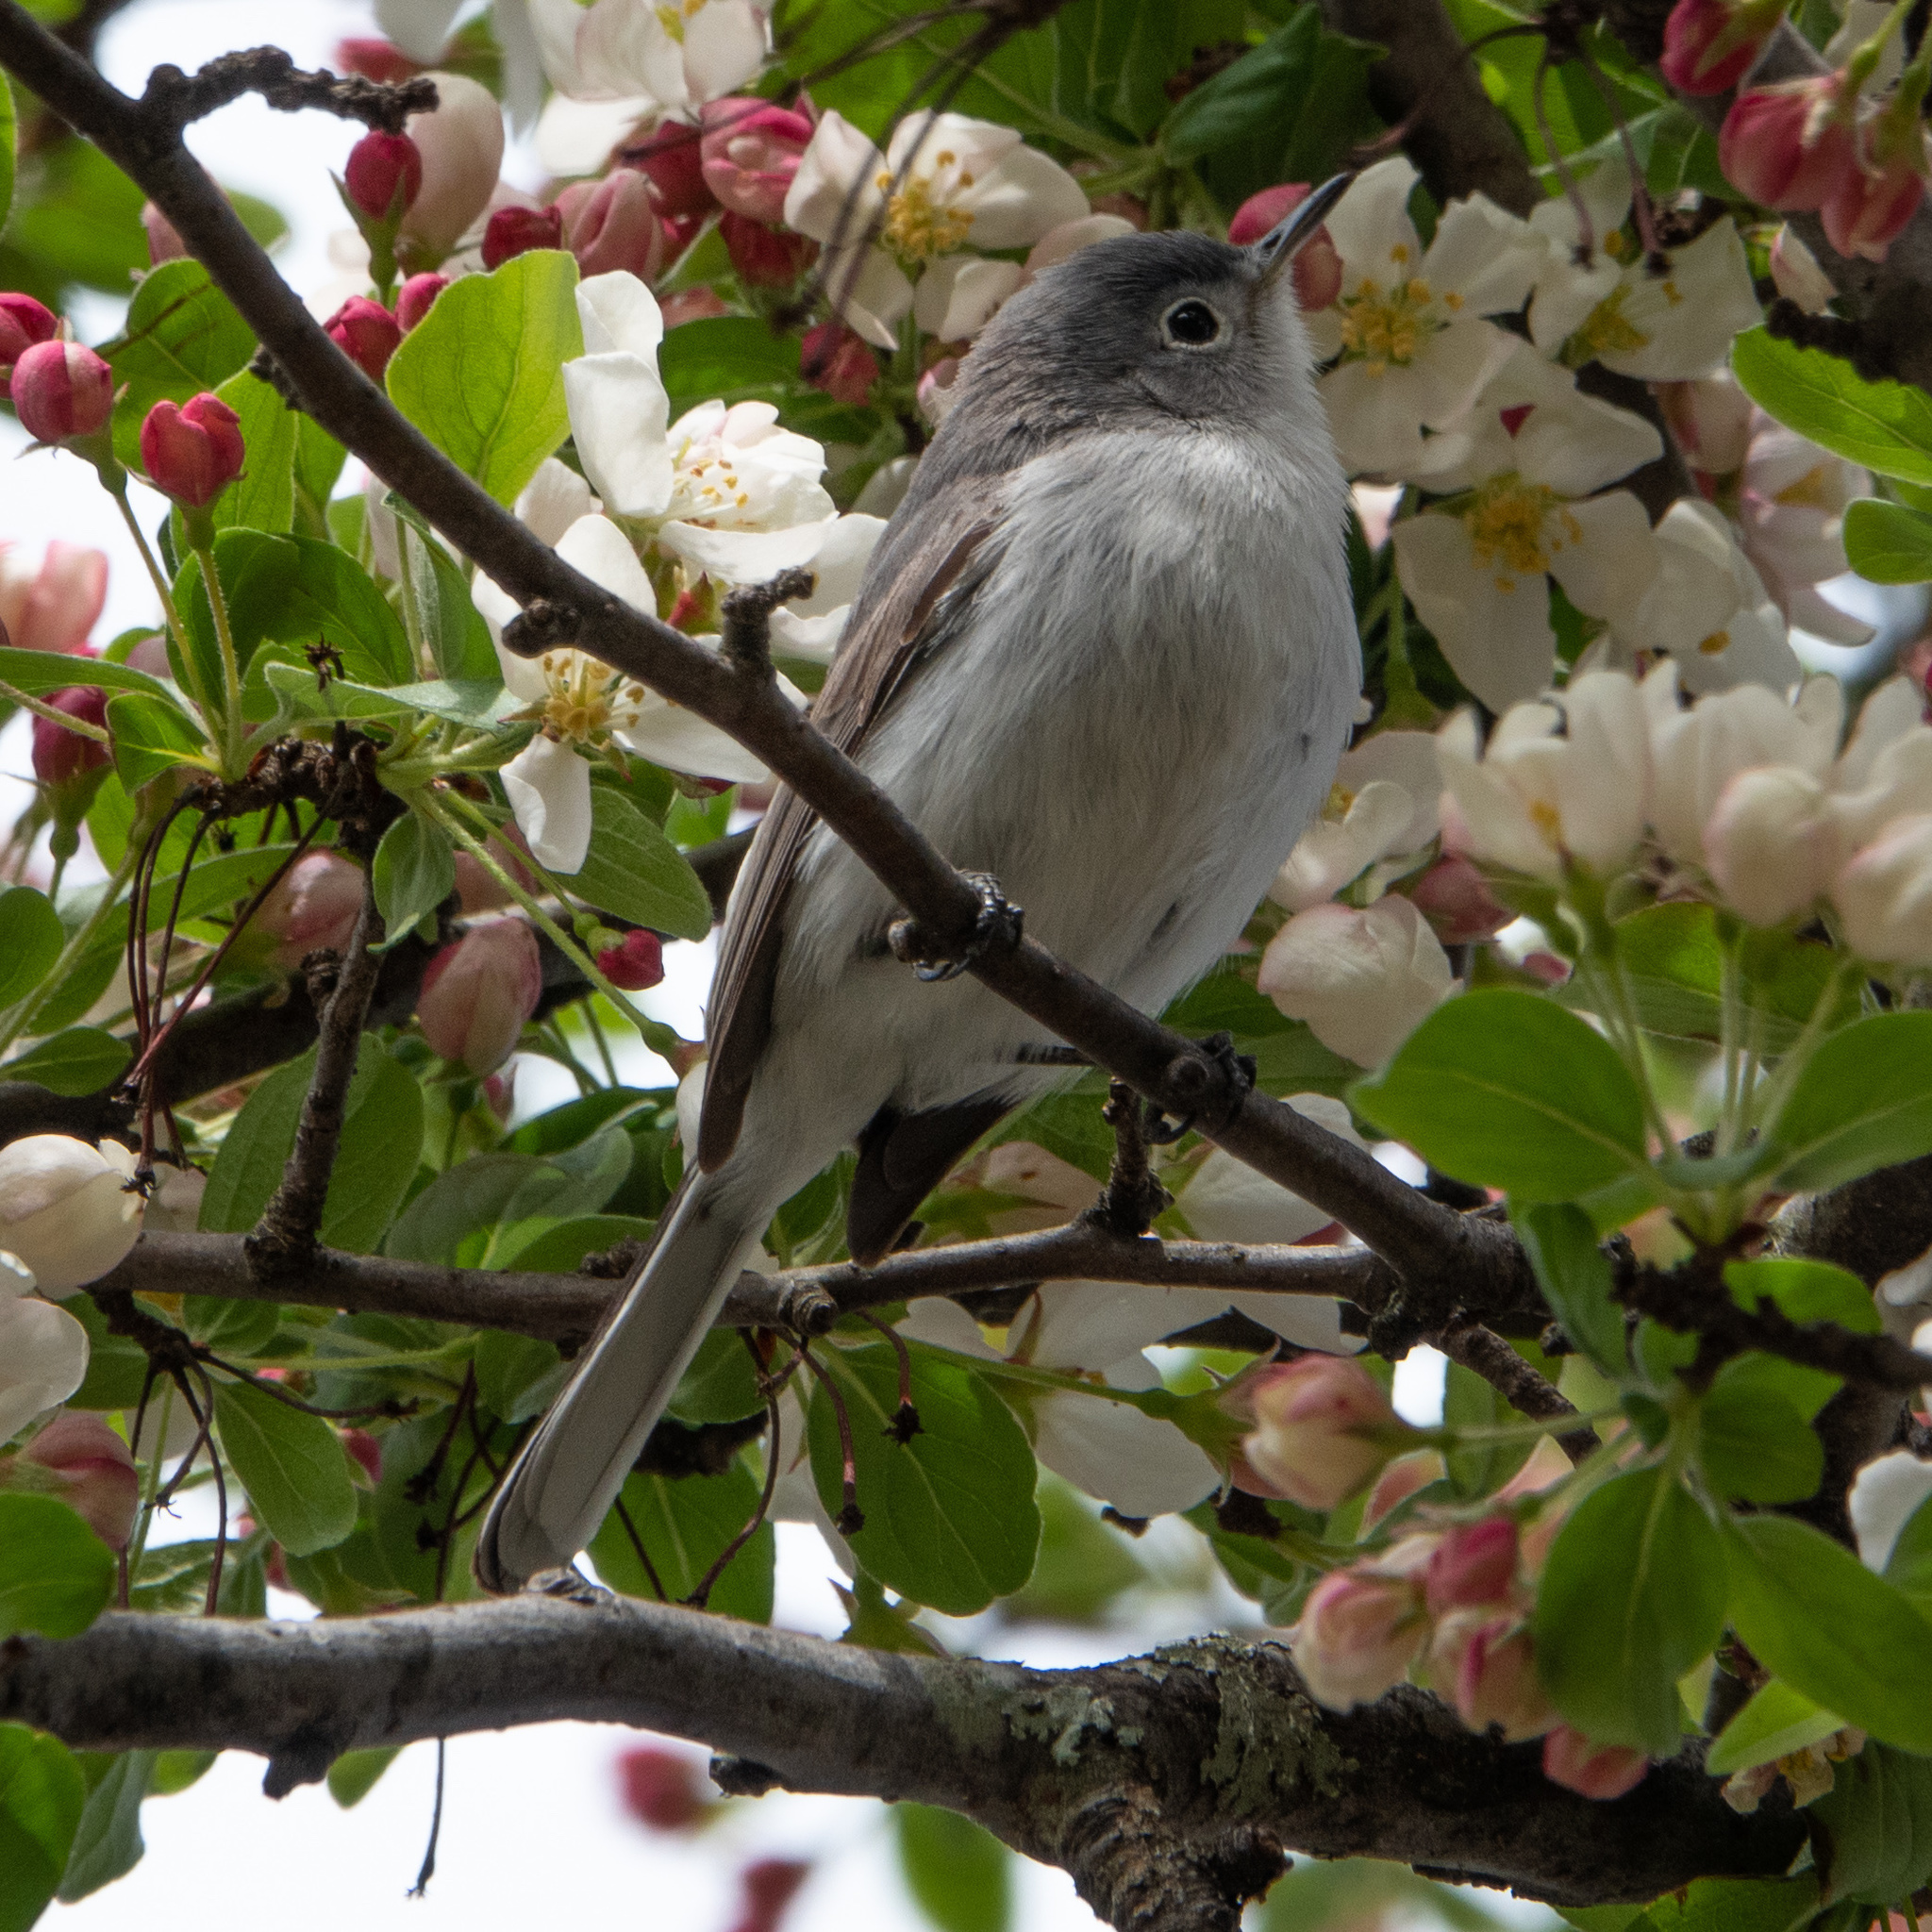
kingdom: Animalia
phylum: Chordata
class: Aves
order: Passeriformes
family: Polioptilidae
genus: Polioptila
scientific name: Polioptila caerulea
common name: Blue-gray gnatcatcher
